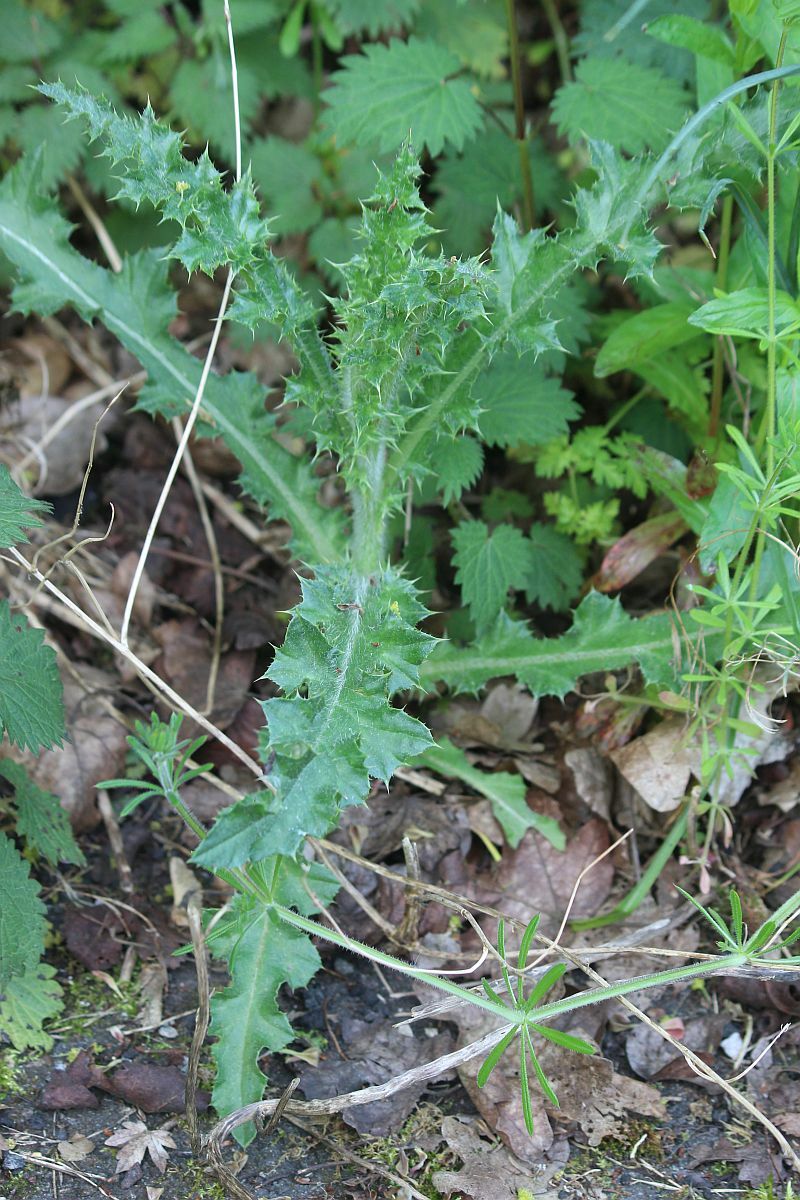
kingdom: Plantae
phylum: Tracheophyta
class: Magnoliopsida
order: Asterales
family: Asteraceae
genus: Cirsium
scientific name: Cirsium arvense
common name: Creeping thistle
